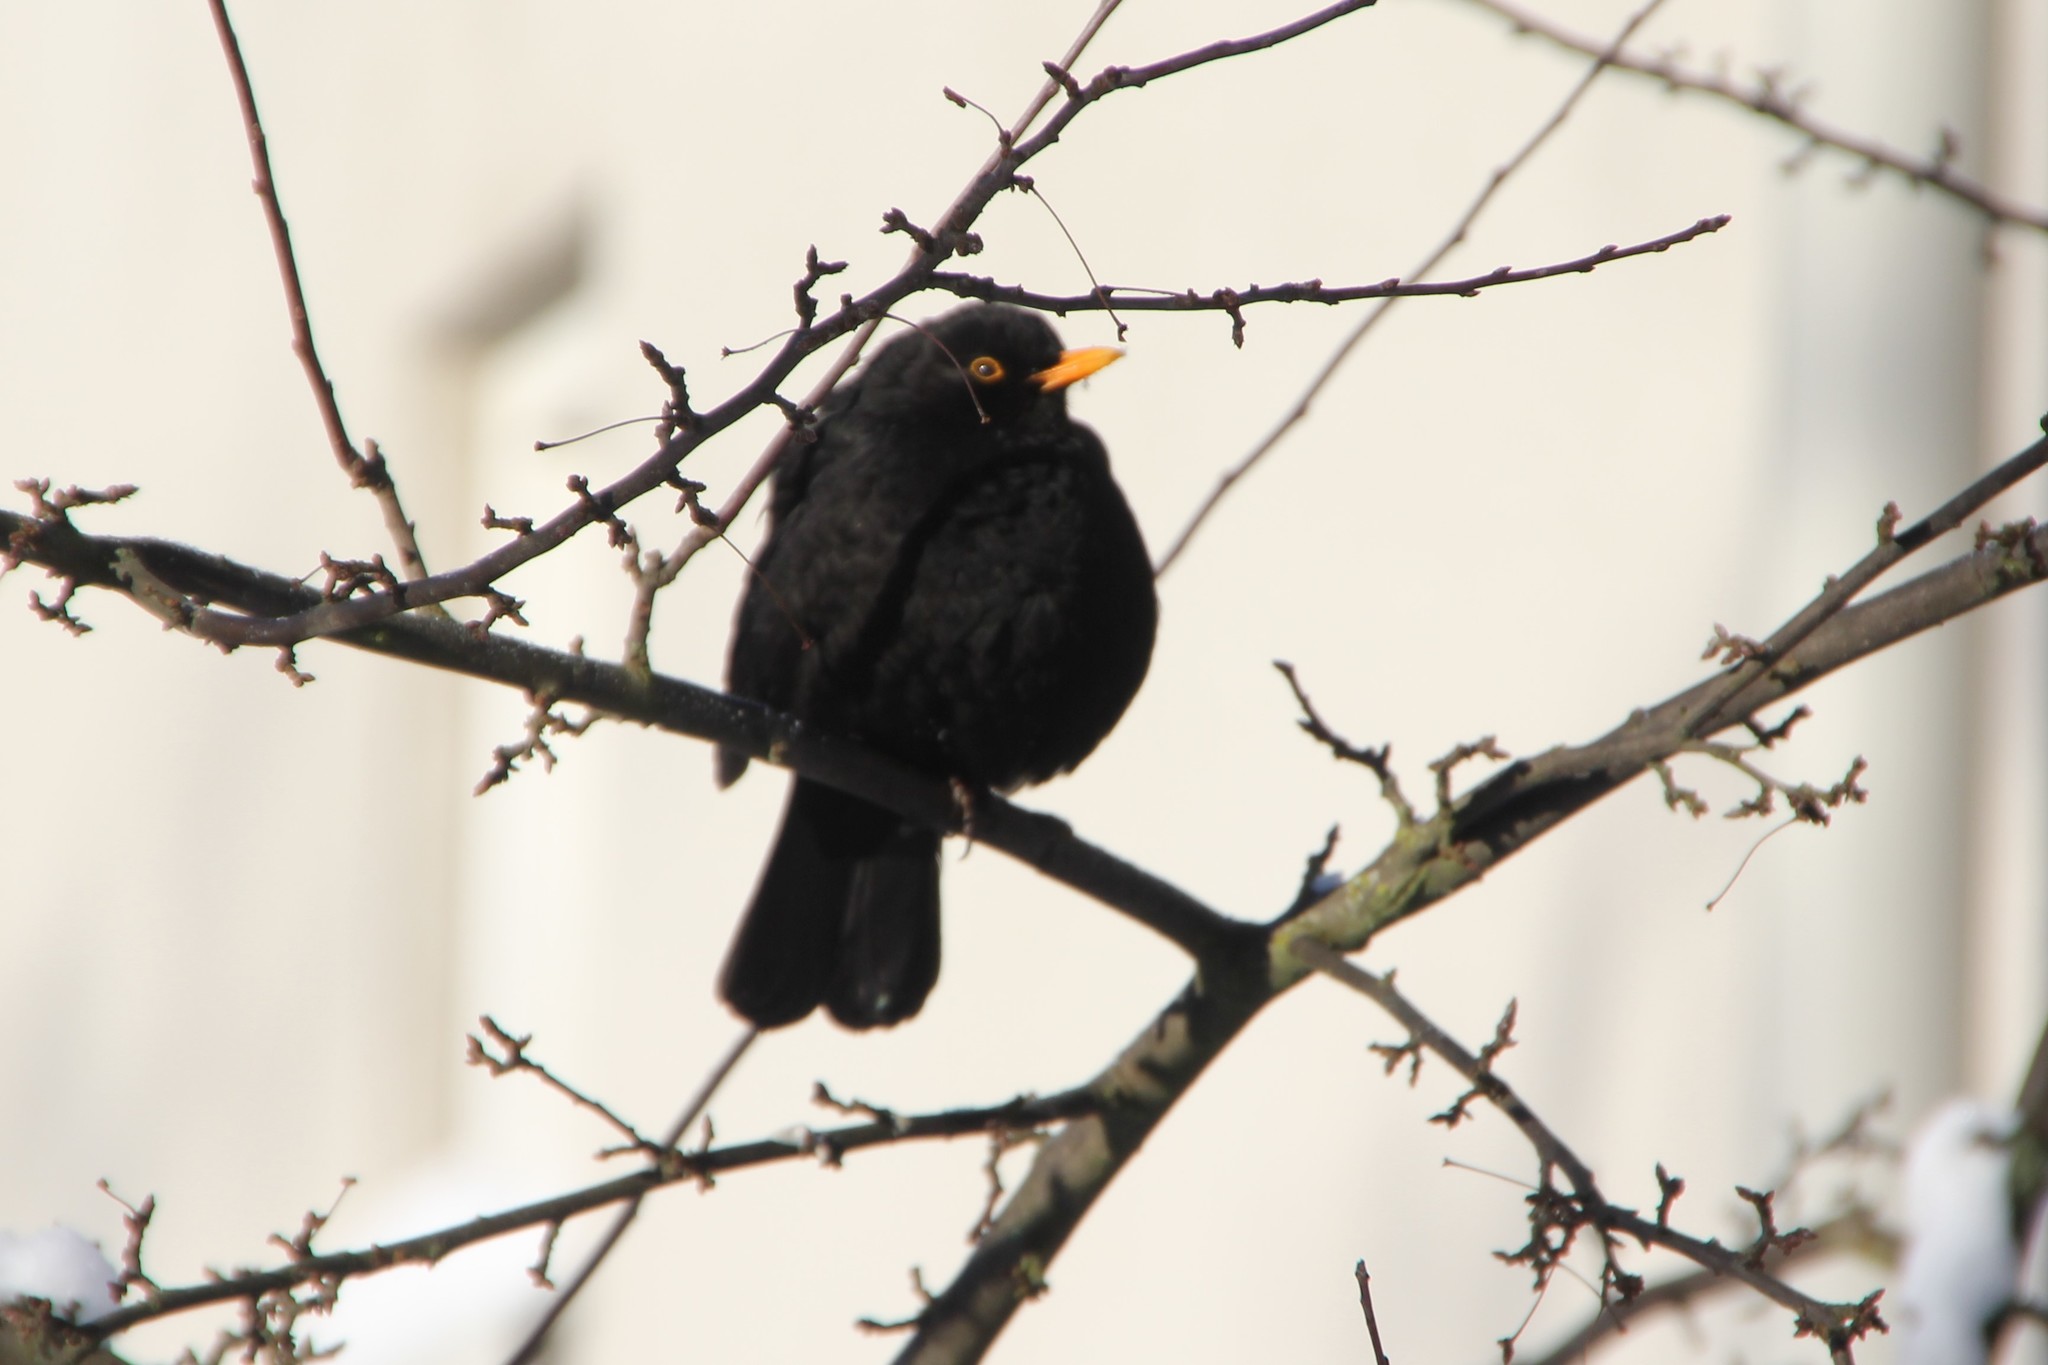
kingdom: Animalia
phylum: Chordata
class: Aves
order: Passeriformes
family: Turdidae
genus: Turdus
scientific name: Turdus merula
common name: Common blackbird
